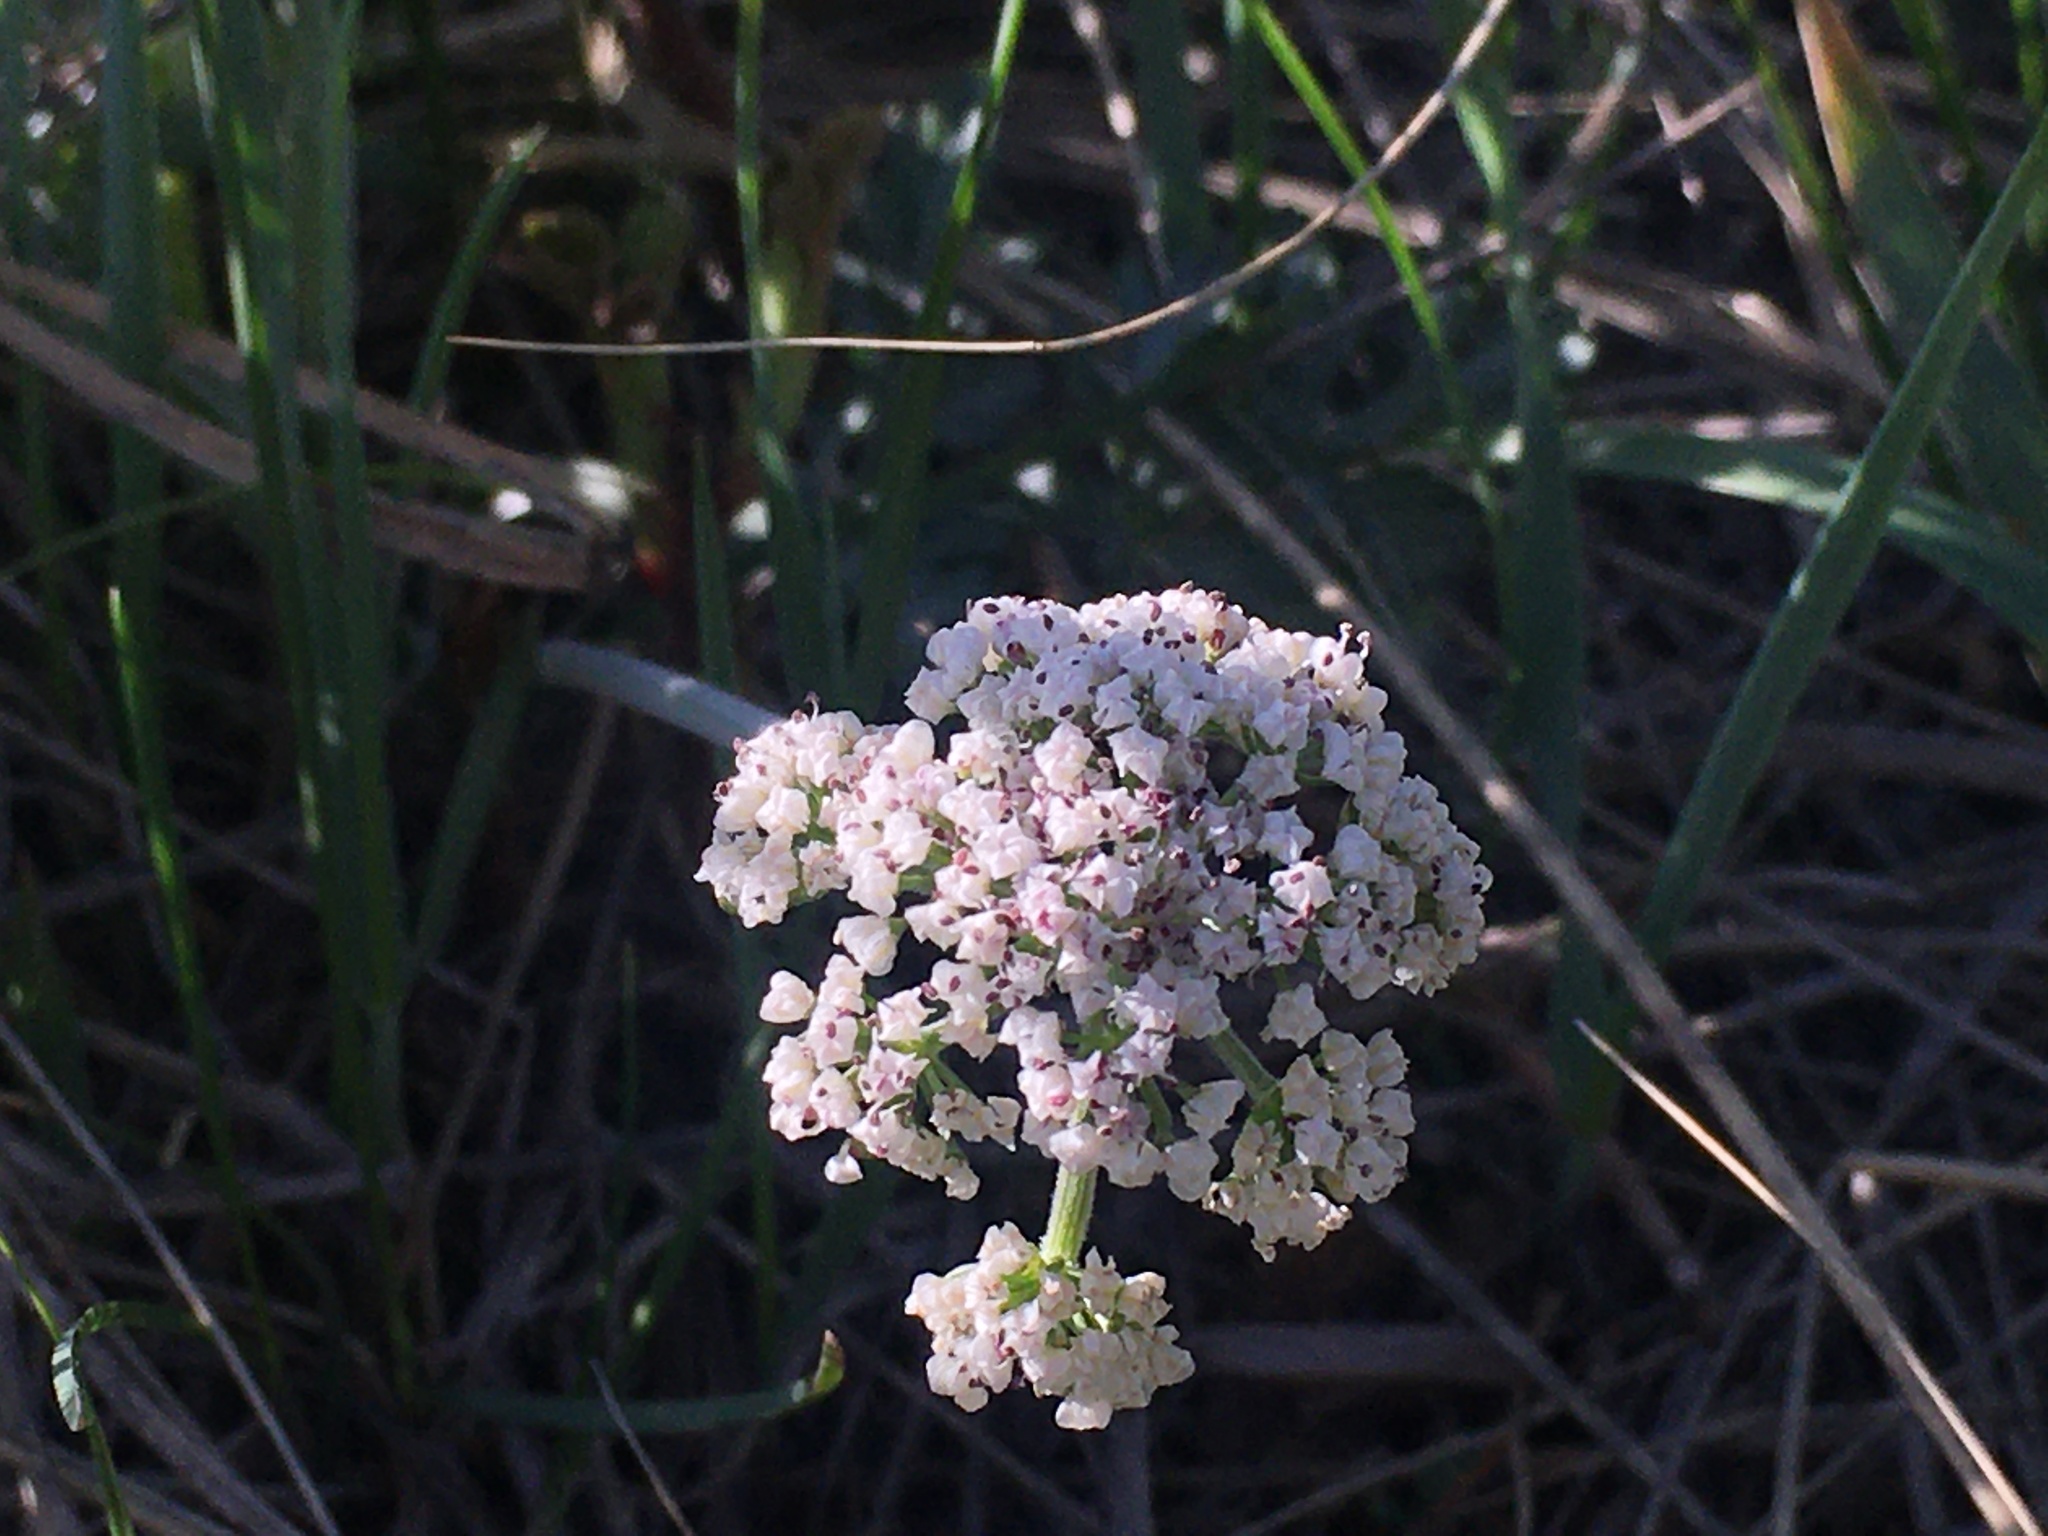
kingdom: Plantae
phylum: Tracheophyta
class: Magnoliopsida
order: Apiales
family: Apiaceae
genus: Lomatium
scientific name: Lomatium orientale
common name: Eastern cous
